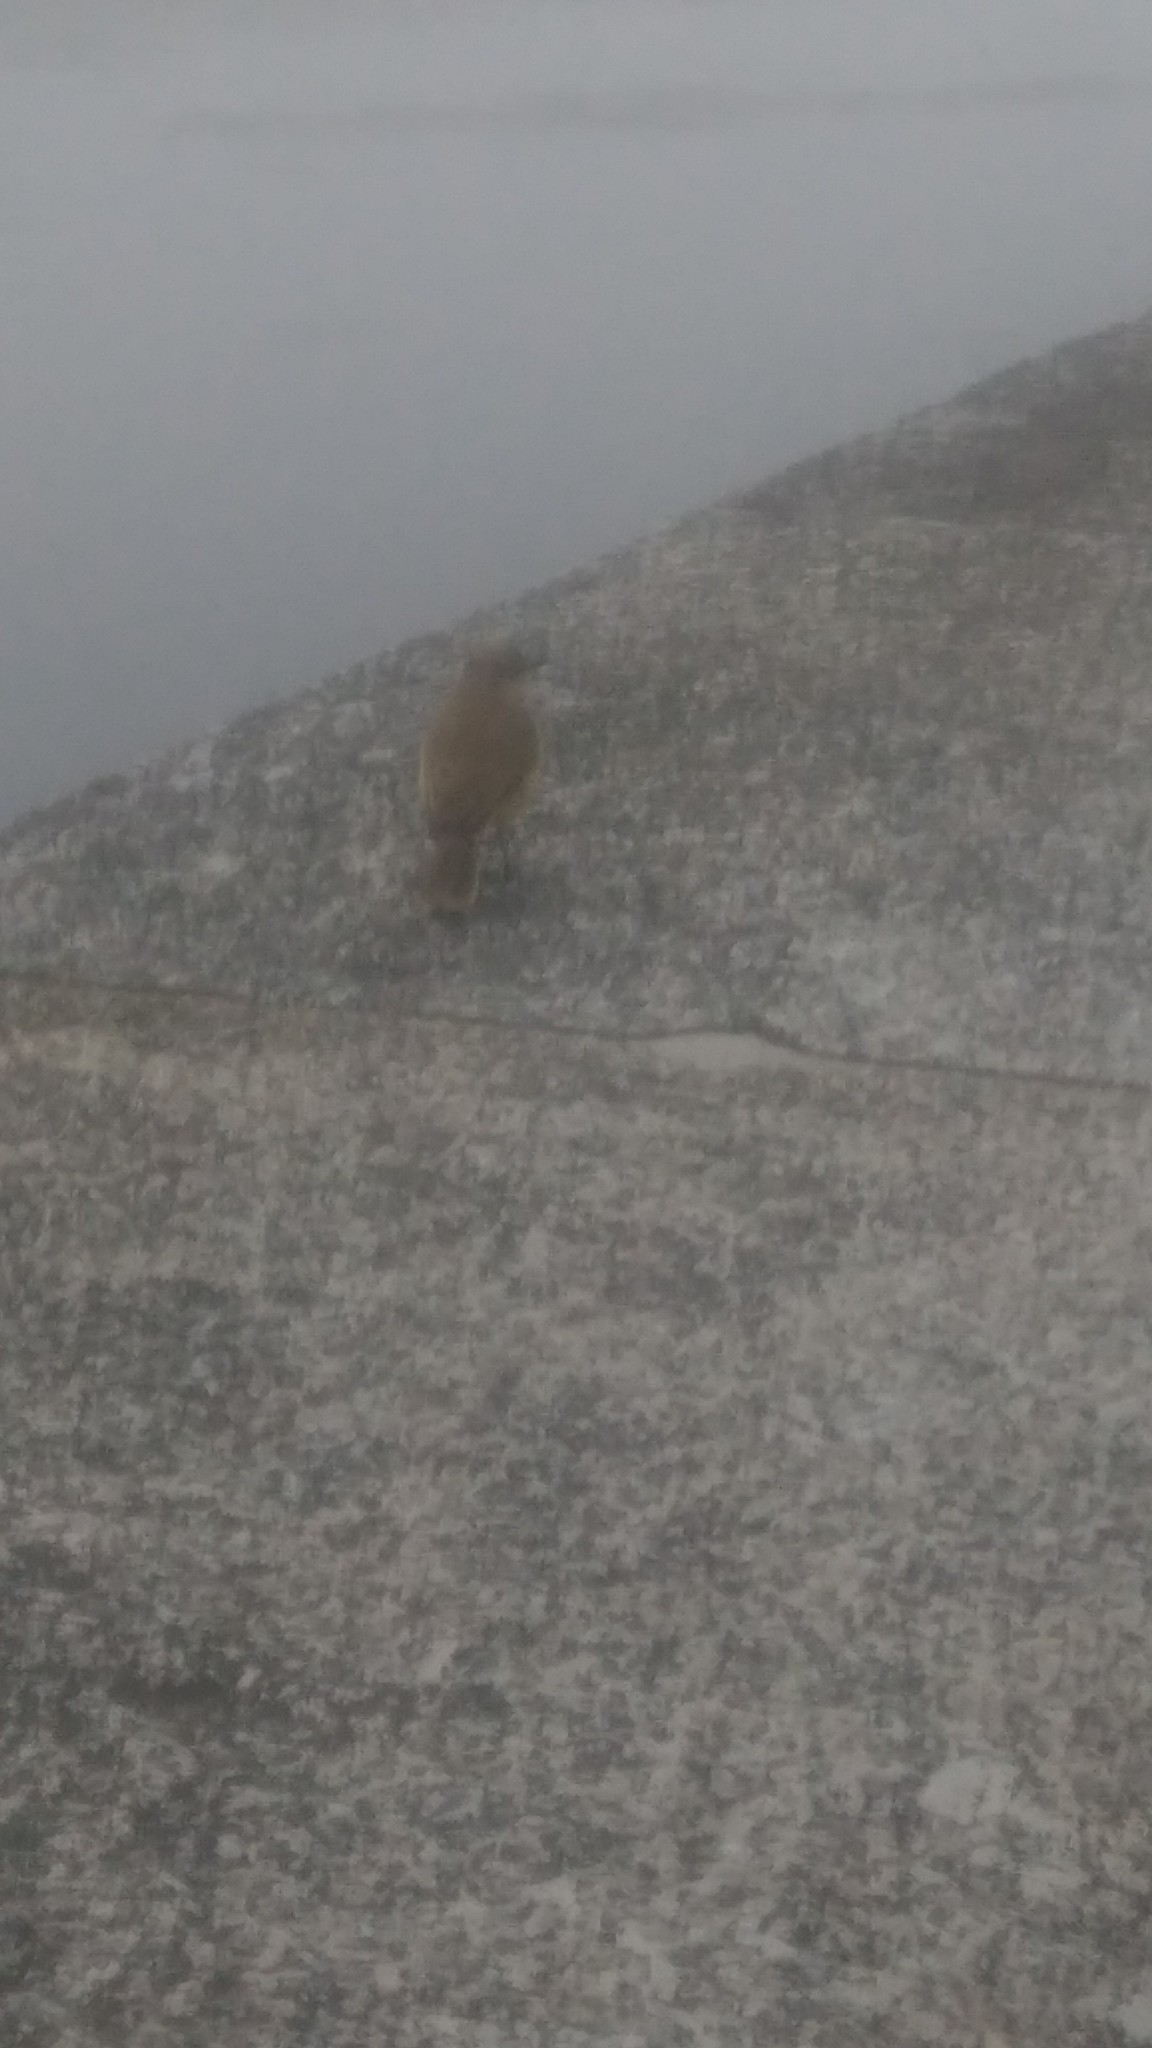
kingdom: Animalia
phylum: Chordata
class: Aves
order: Passeriformes
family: Tyrannidae
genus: Machetornis
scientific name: Machetornis rixosa
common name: Cattle tyrant
